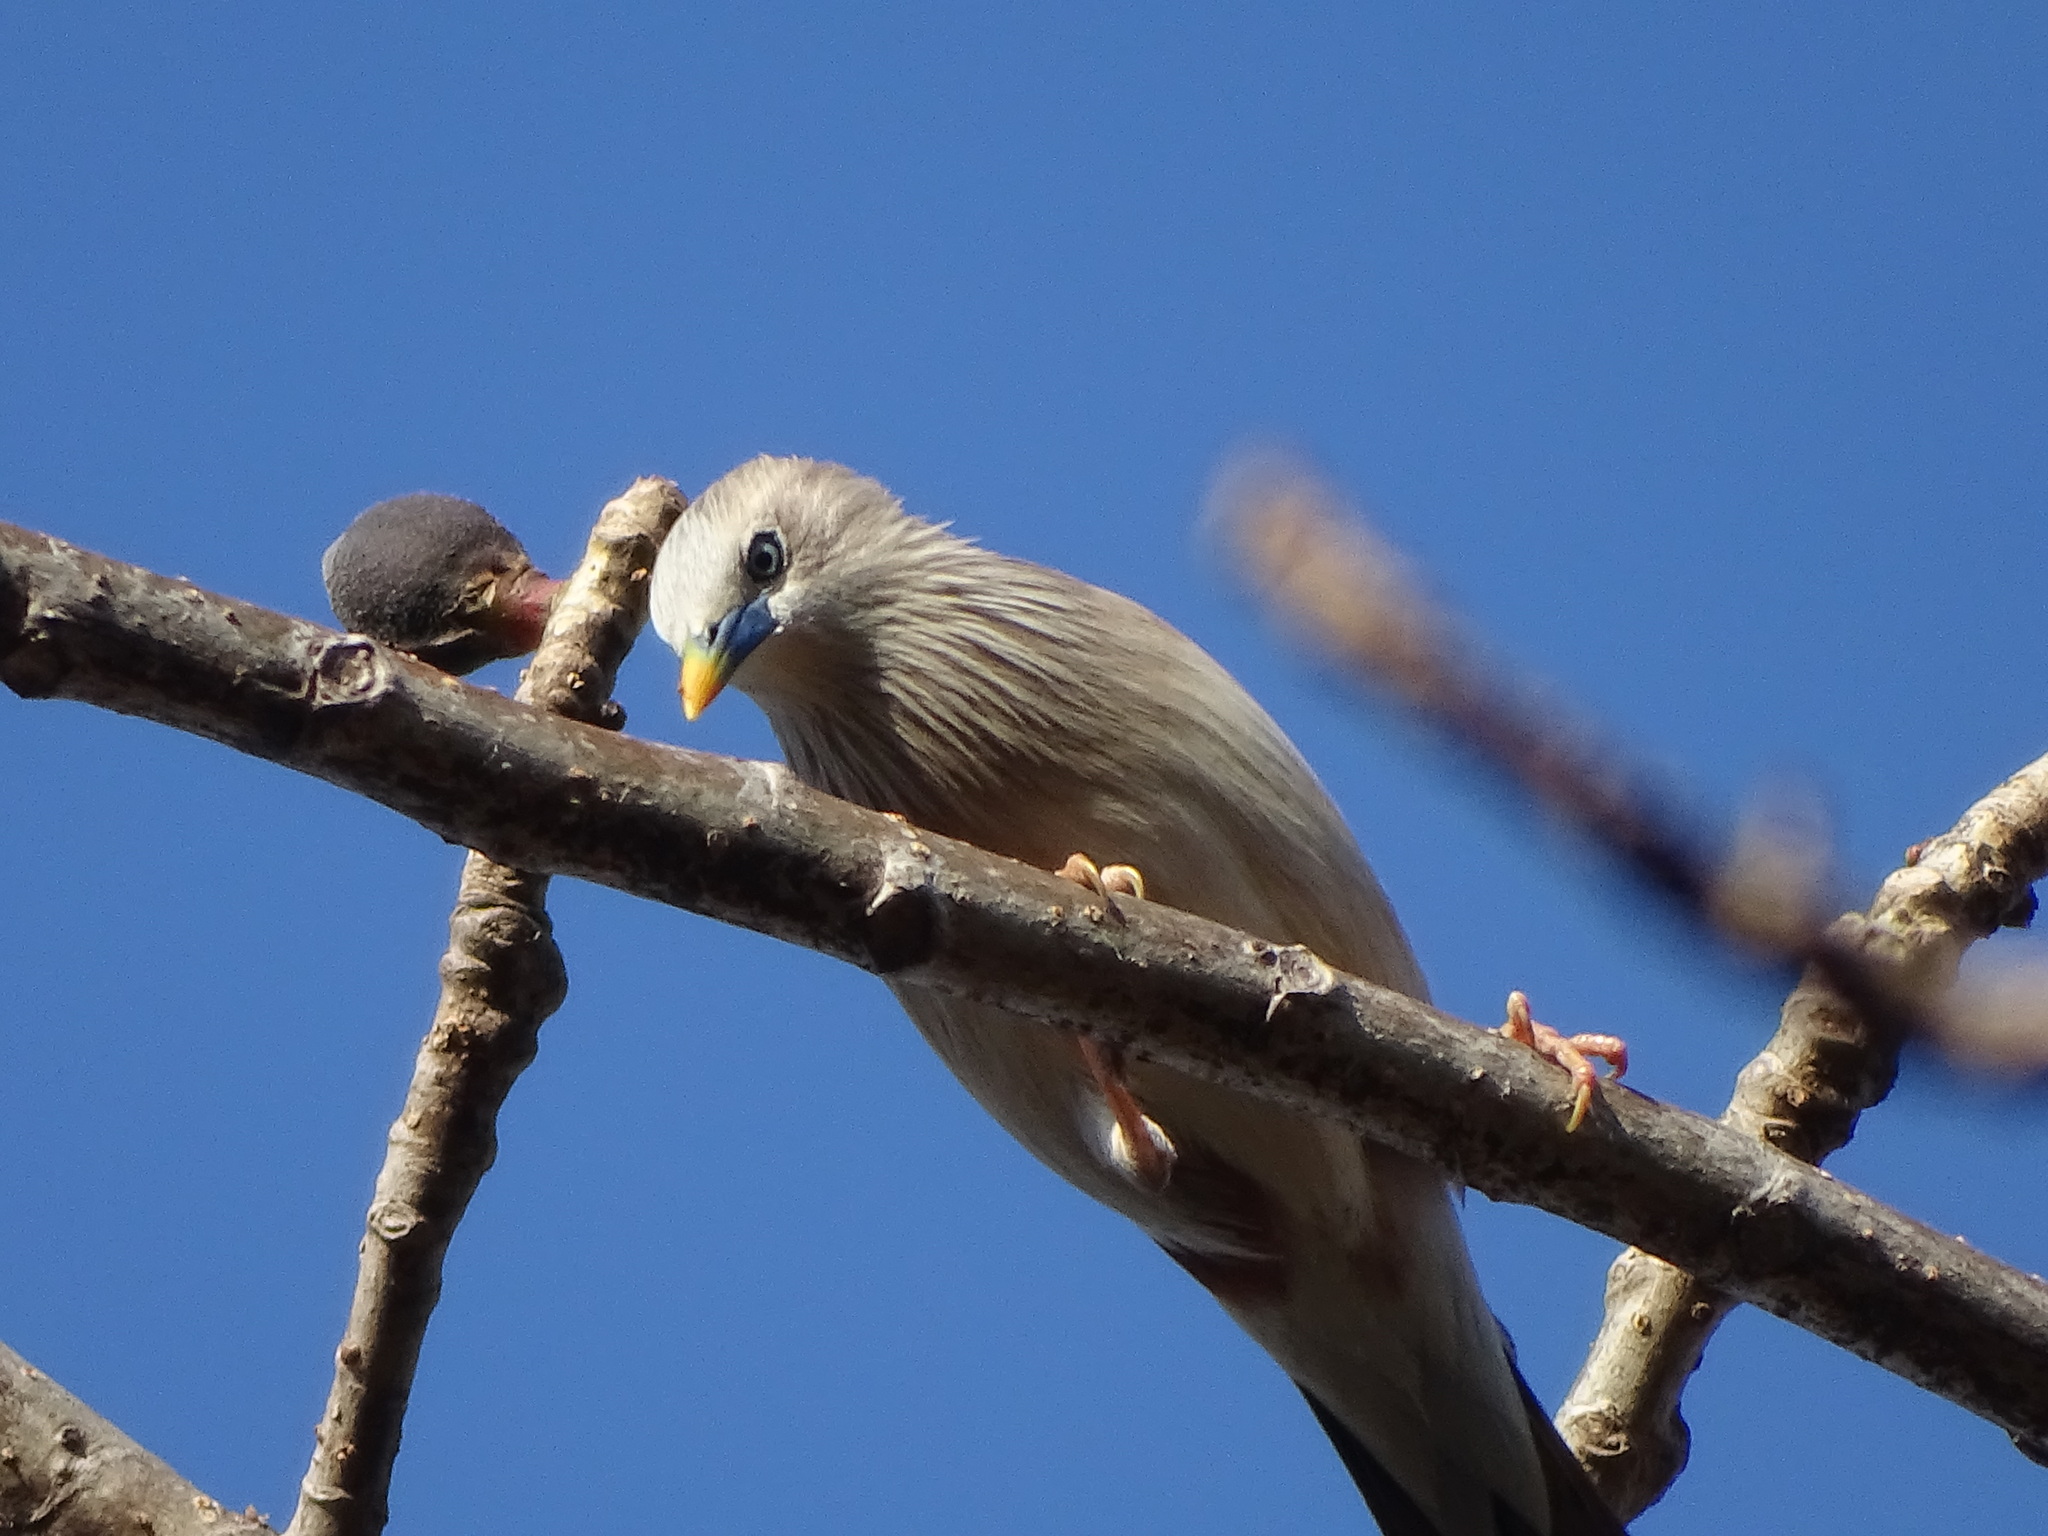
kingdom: Animalia
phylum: Chordata
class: Aves
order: Passeriformes
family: Sturnidae
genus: Sturnia
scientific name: Sturnia malabarica
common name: Chestnut-tailed starling
